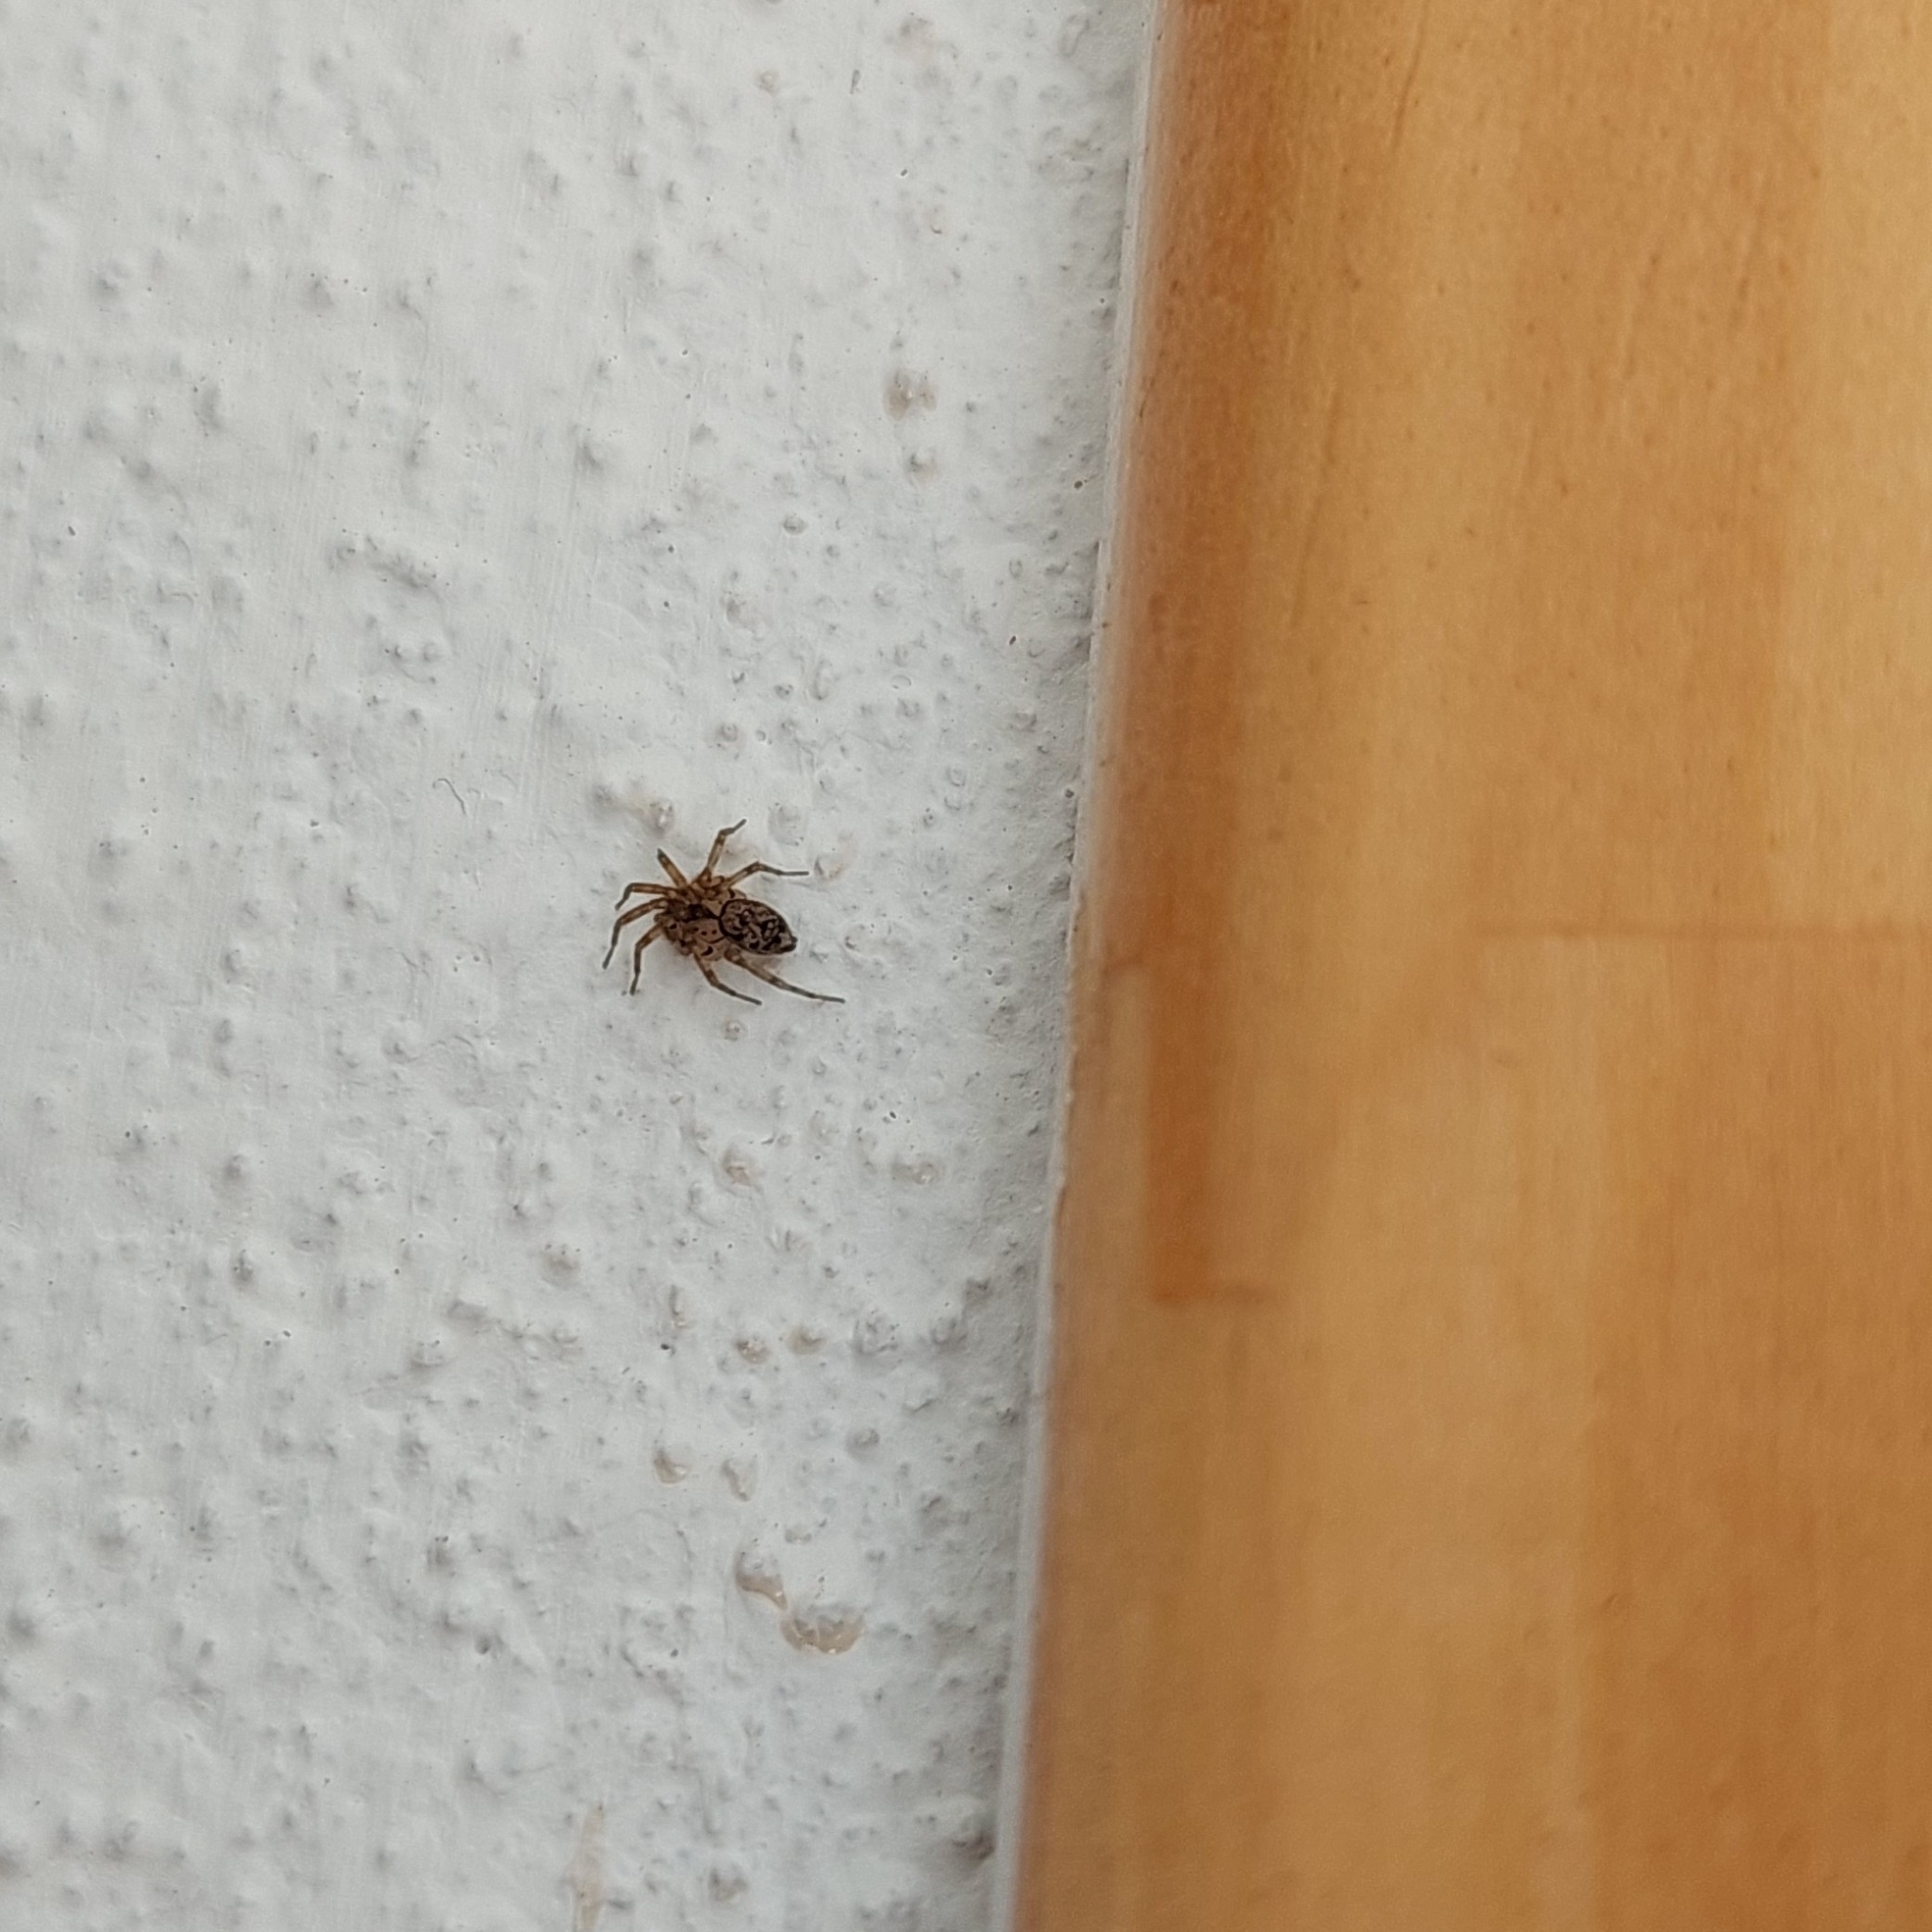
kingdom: Animalia
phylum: Arthropoda
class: Arachnida
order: Araneae
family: Oecobiidae
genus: Oecobius
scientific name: Oecobius navus
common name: Flatmesh weaver
